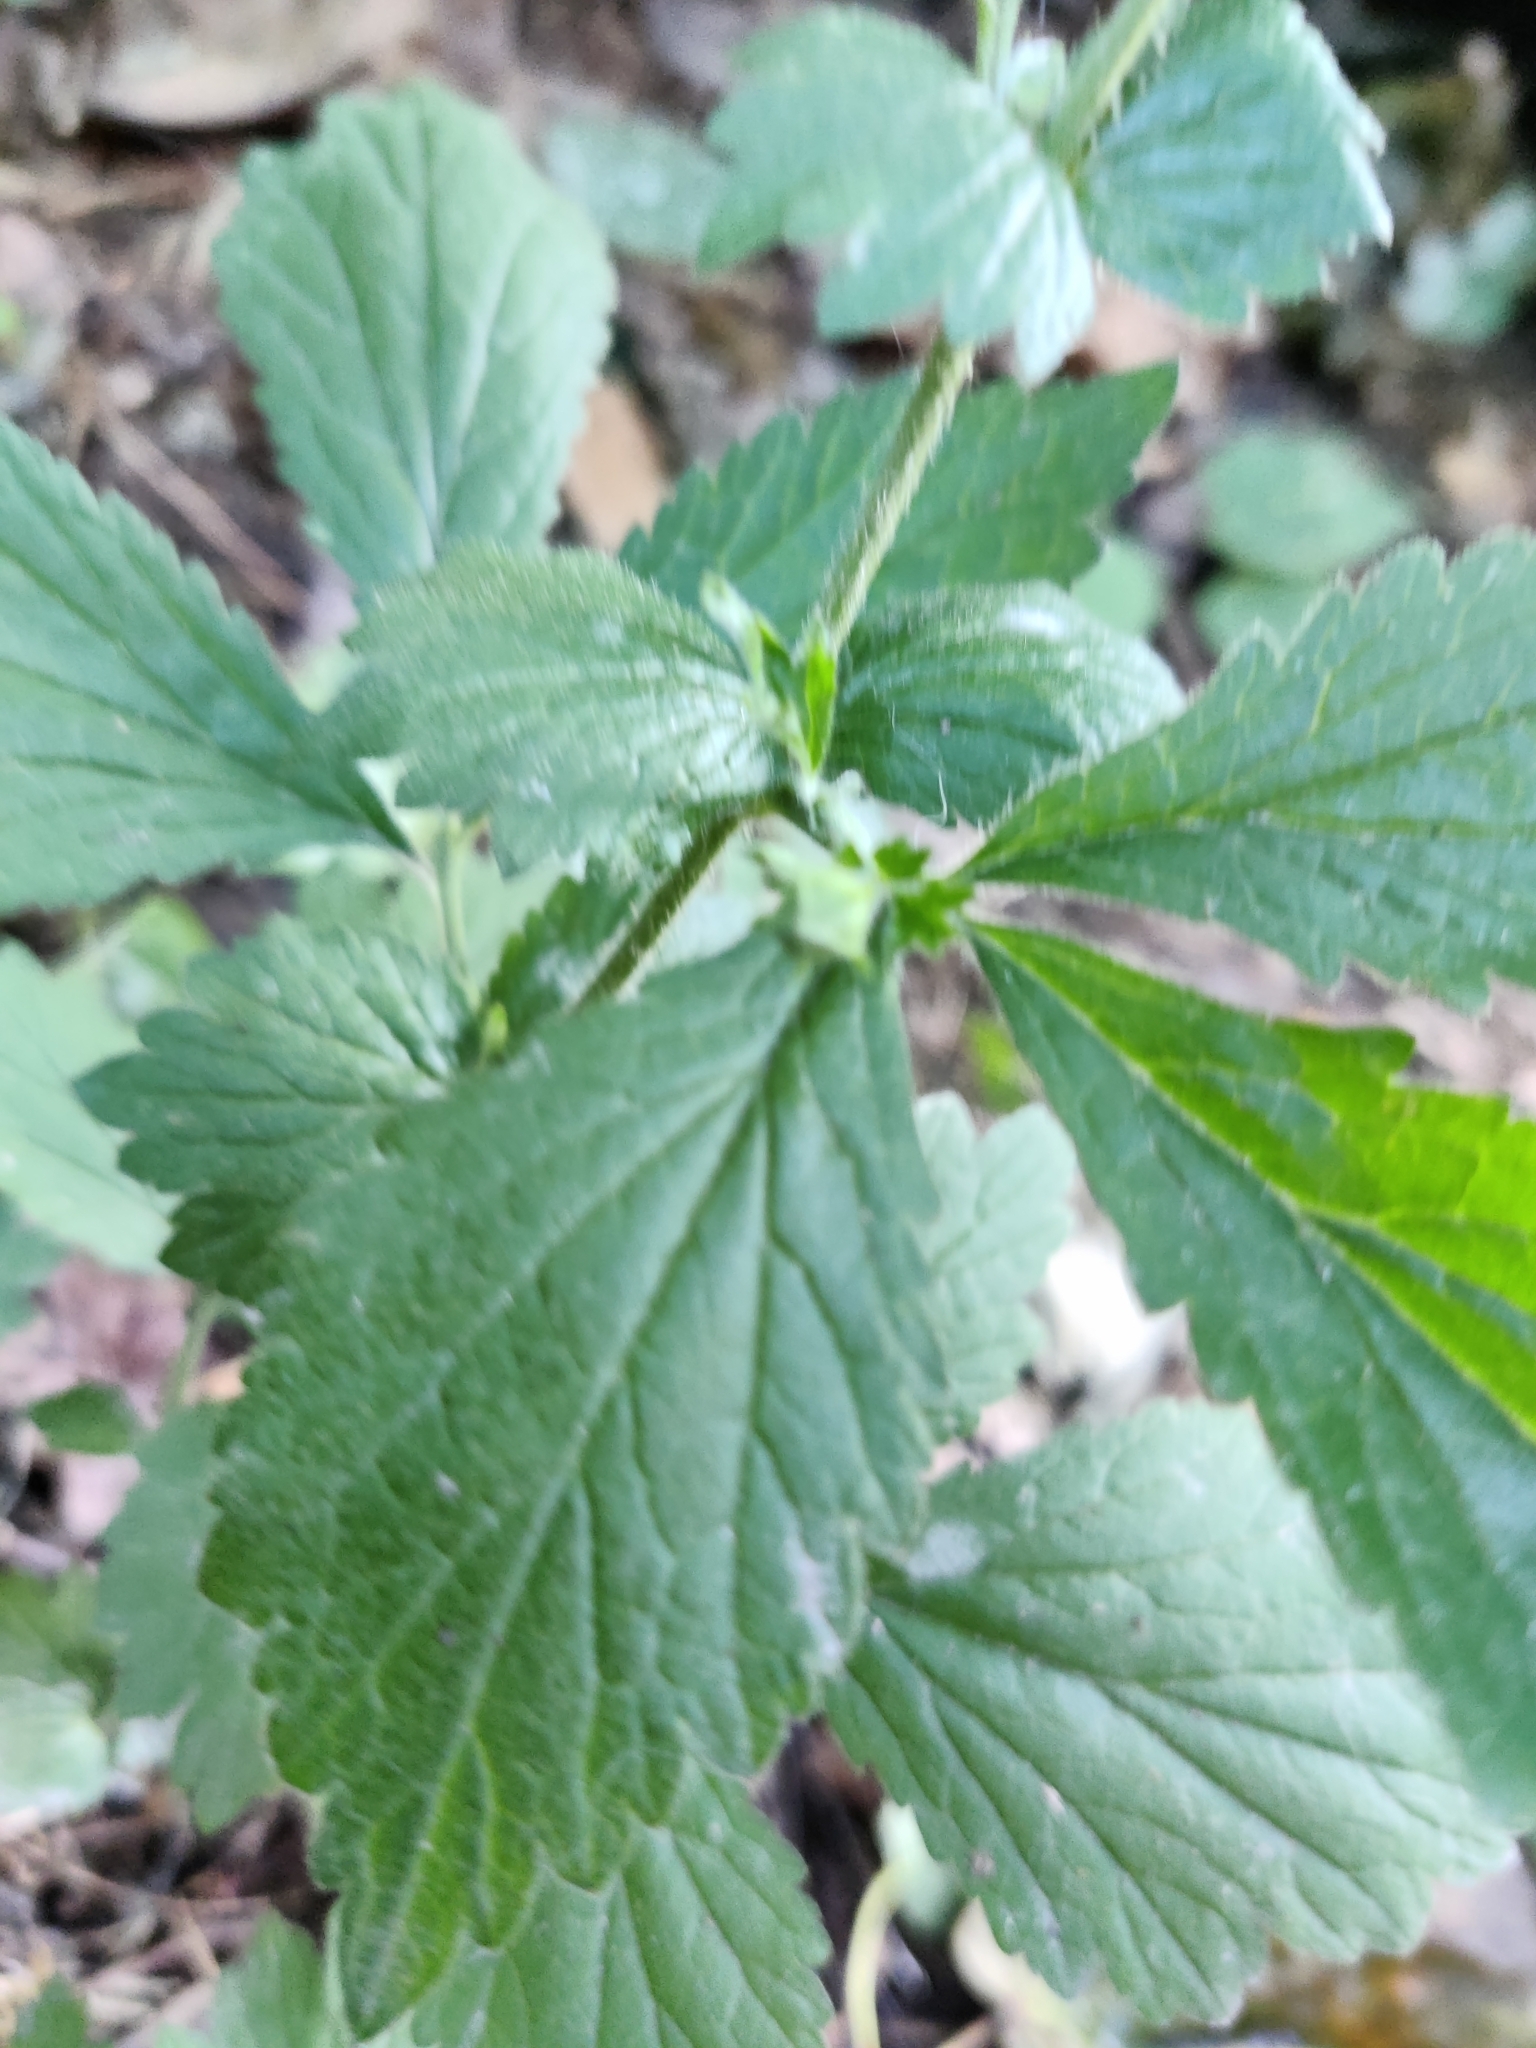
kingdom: Plantae
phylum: Tracheophyta
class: Magnoliopsida
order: Rosales
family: Rosaceae
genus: Geum
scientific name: Geum urbanum
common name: Wood avens
